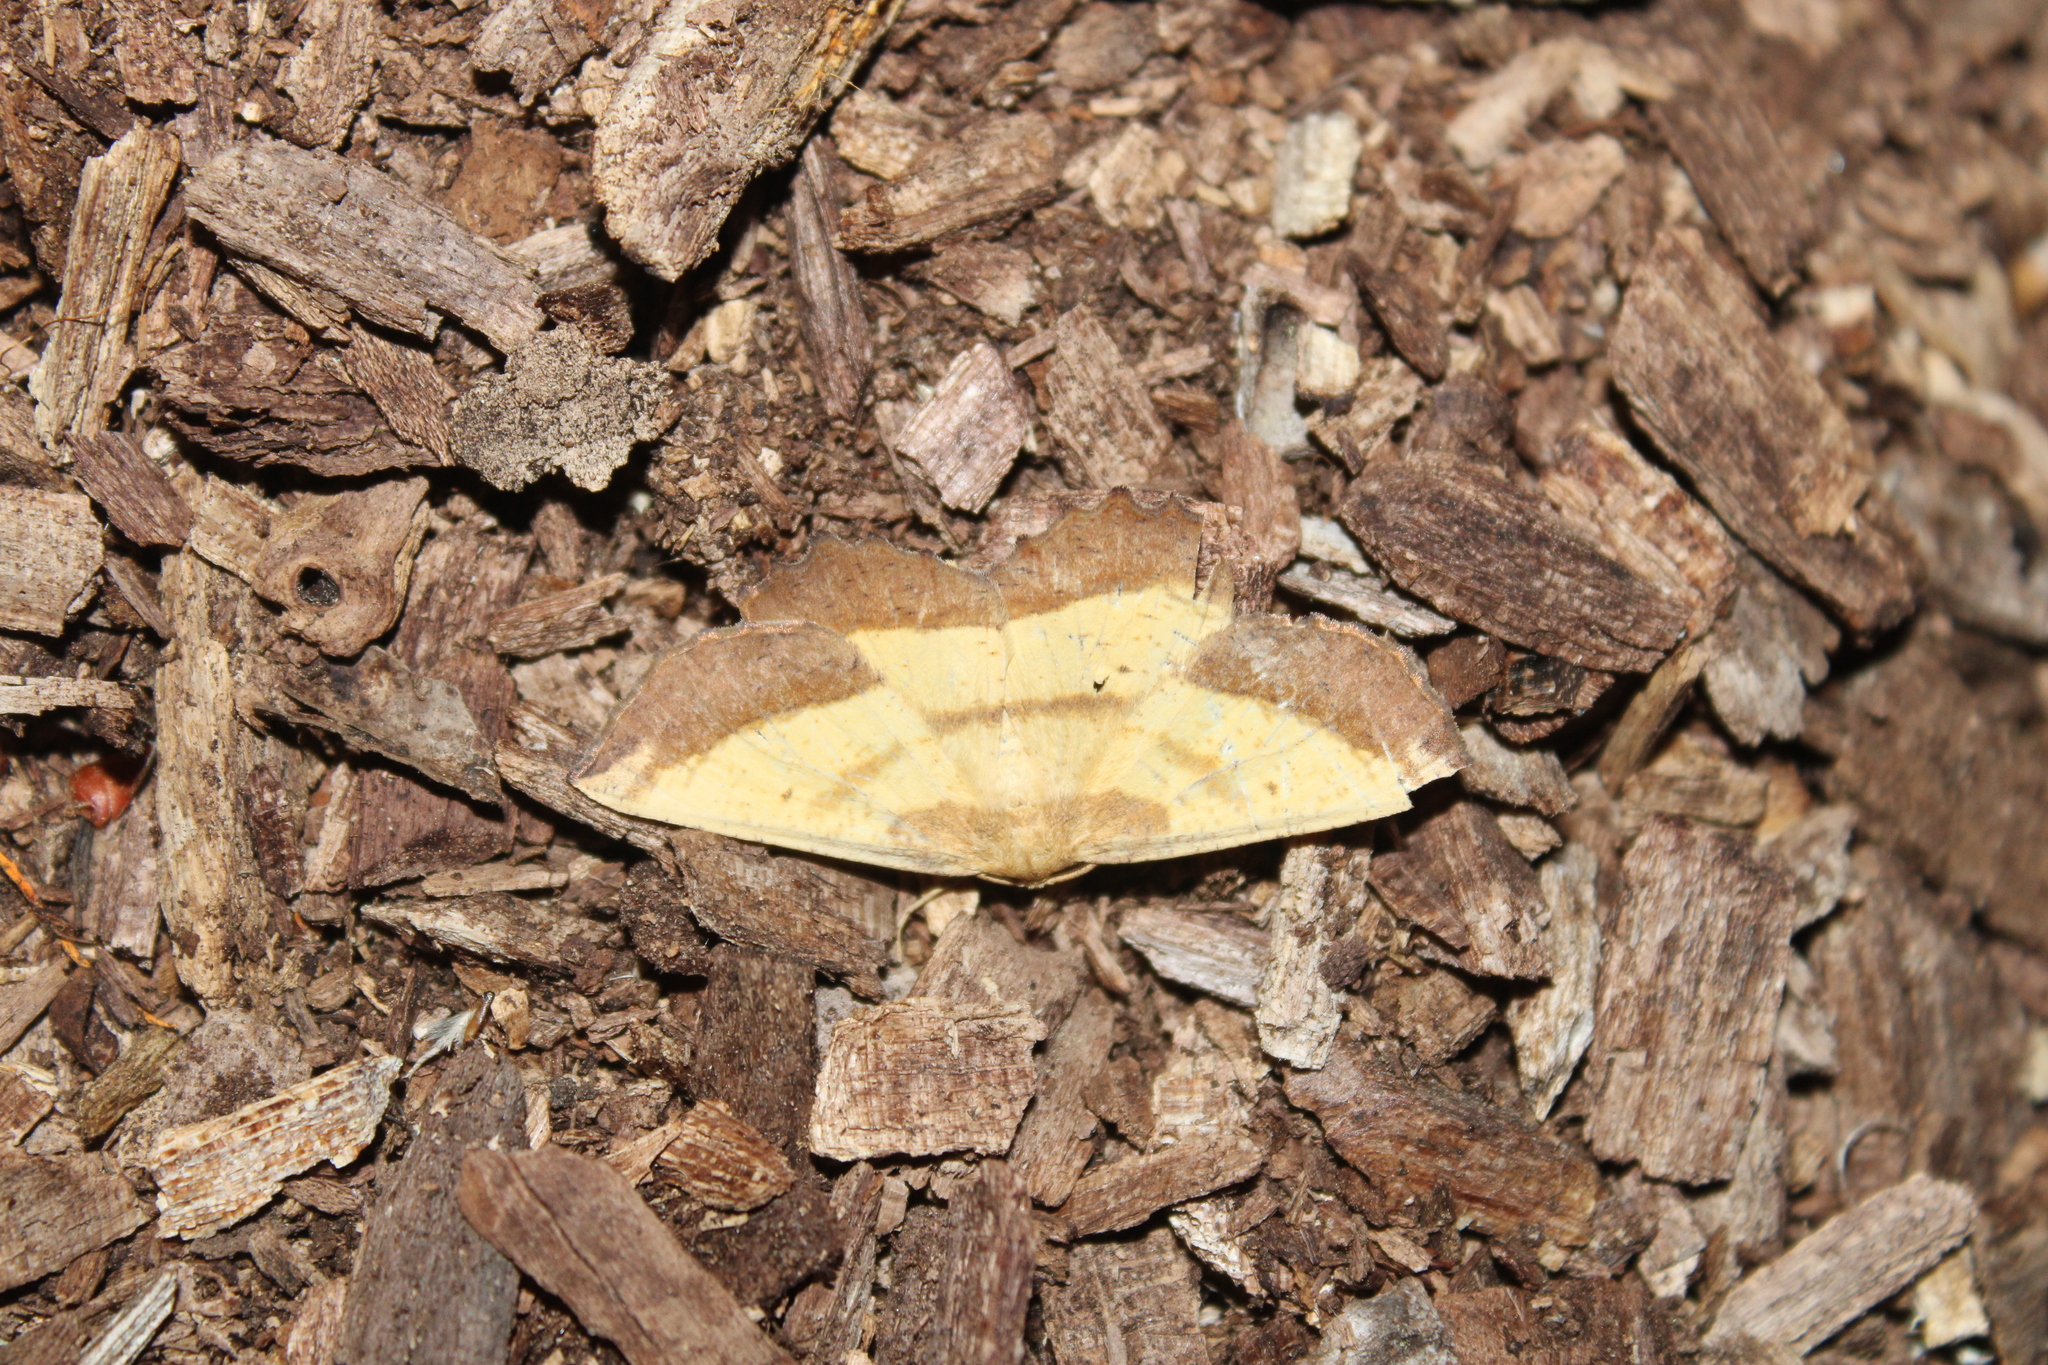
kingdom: Animalia
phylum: Arthropoda
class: Insecta
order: Lepidoptera
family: Geometridae
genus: Euchlaena
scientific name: Euchlaena serrata
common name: Saw wing
